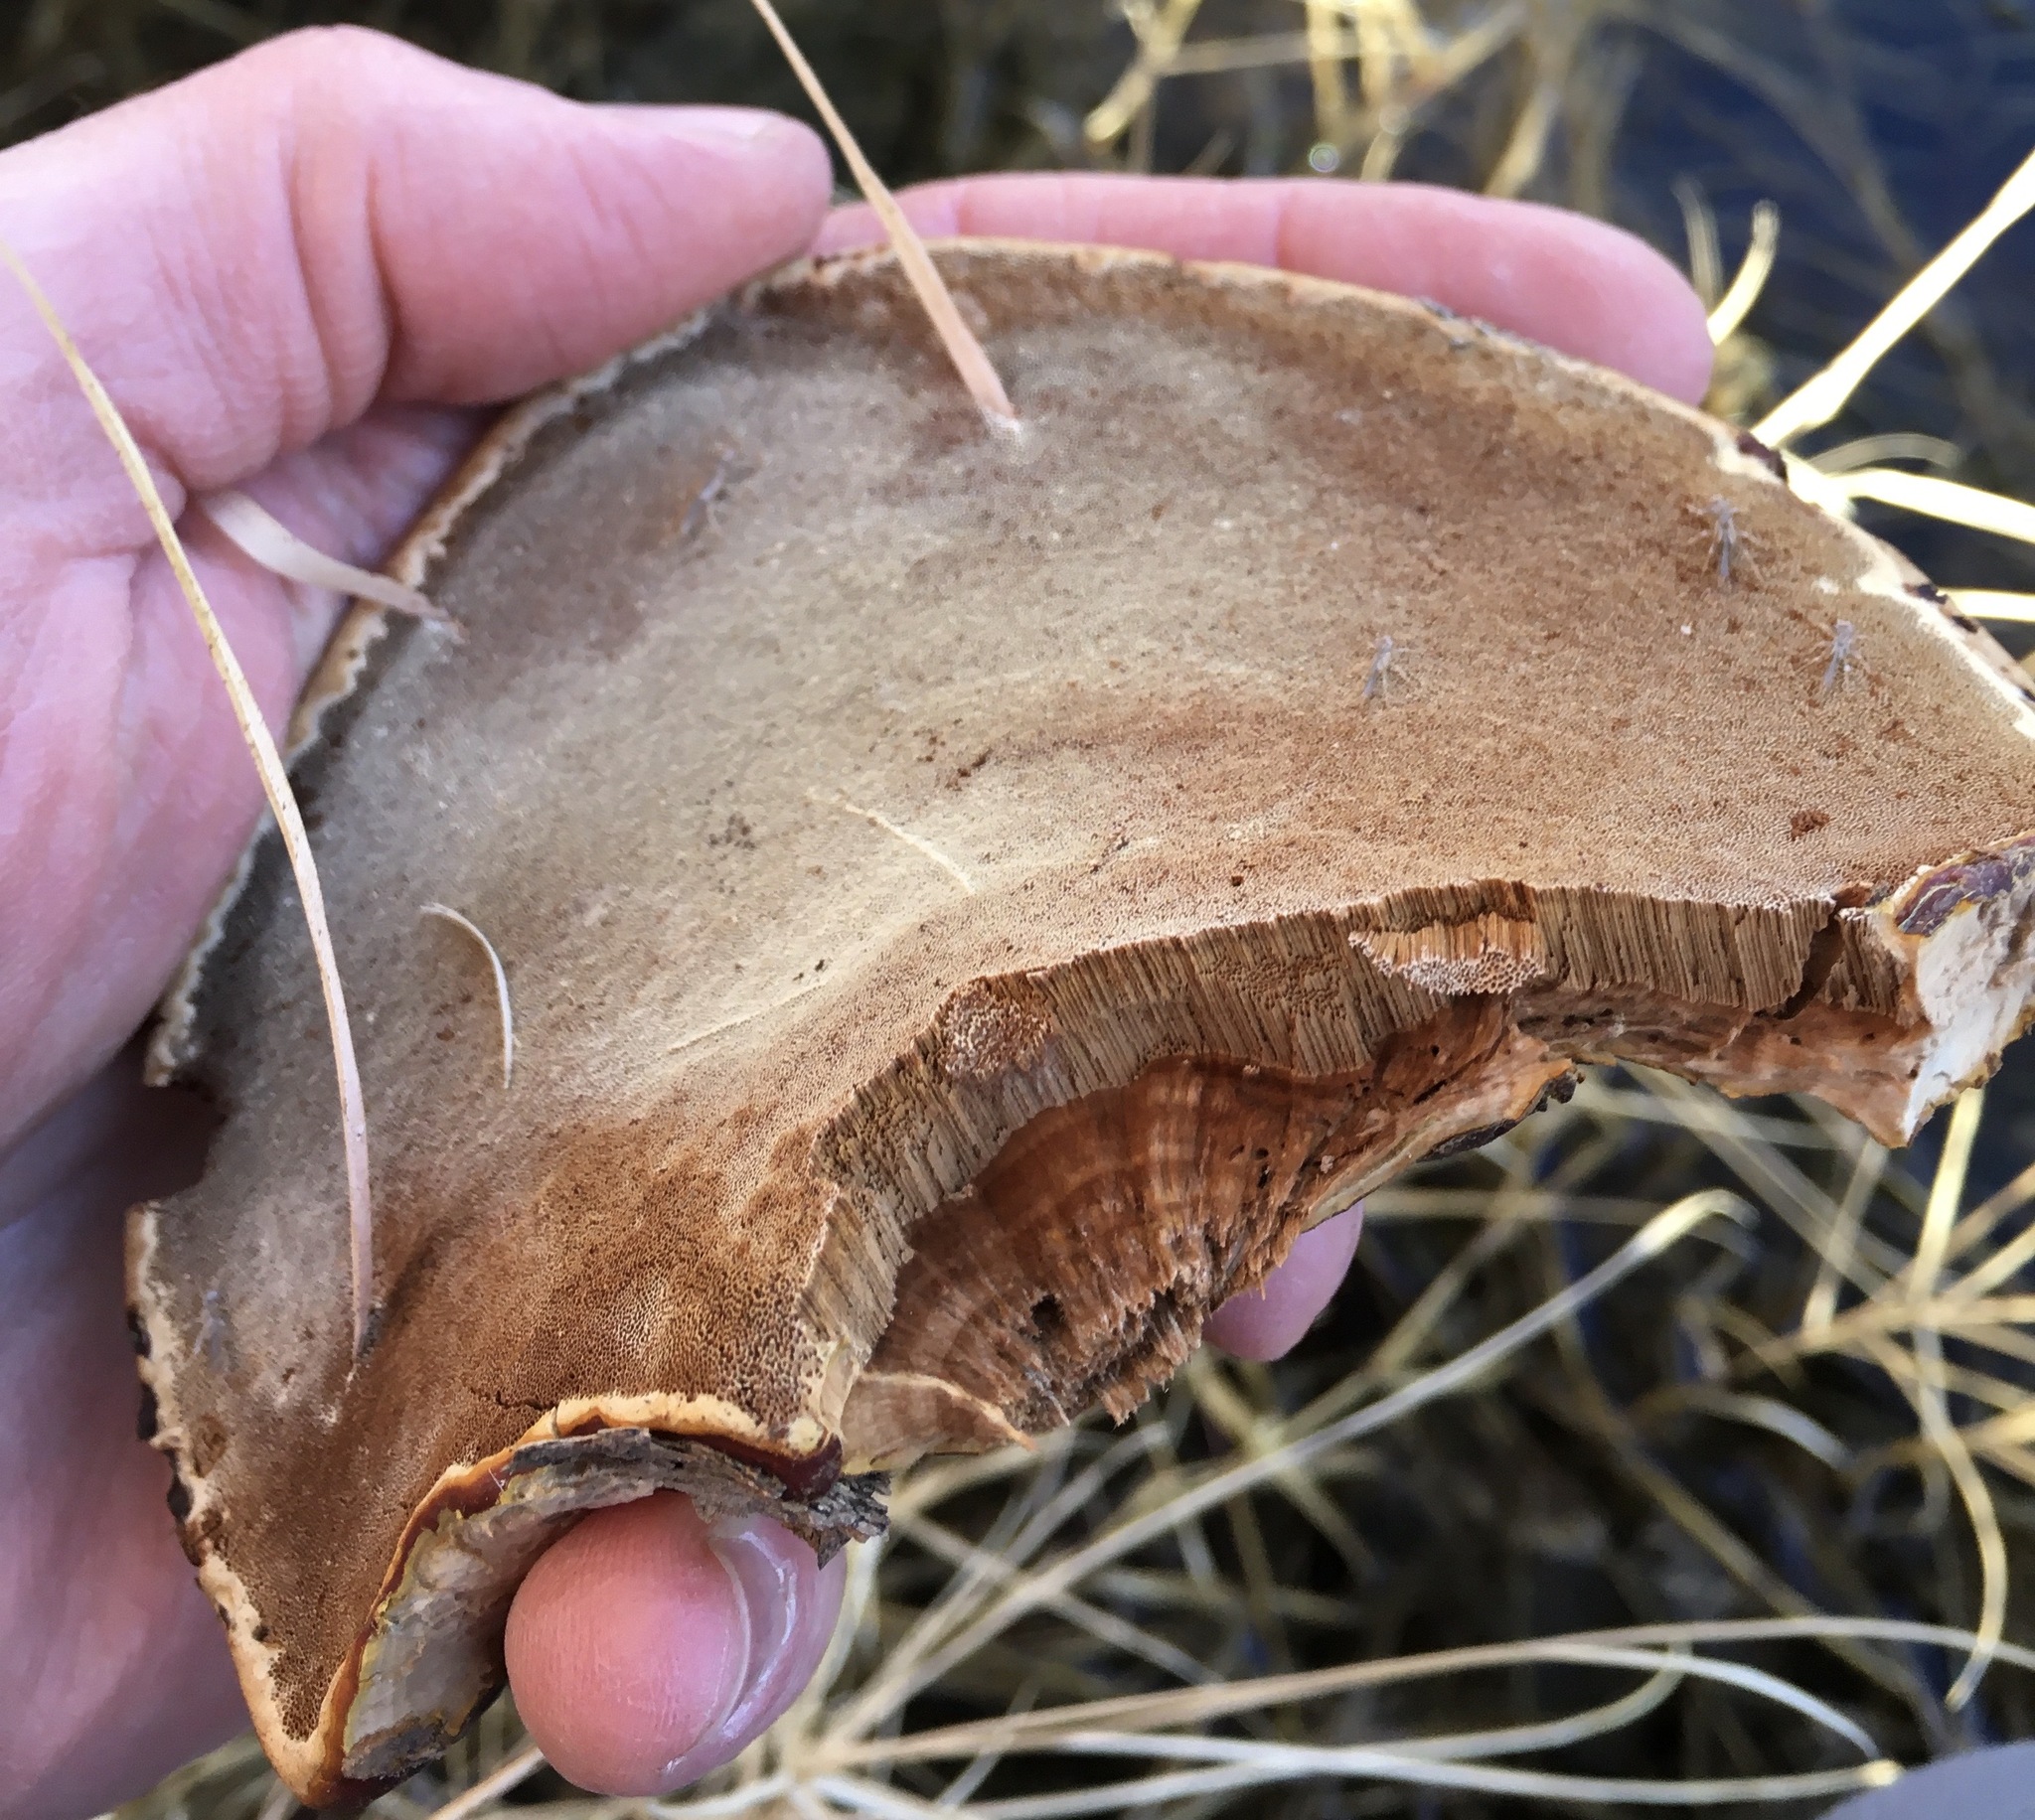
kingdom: Fungi
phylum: Basidiomycota
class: Agaricomycetes
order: Polyporales
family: Polyporaceae
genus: Ganoderma
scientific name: Ganoderma resinaceum
